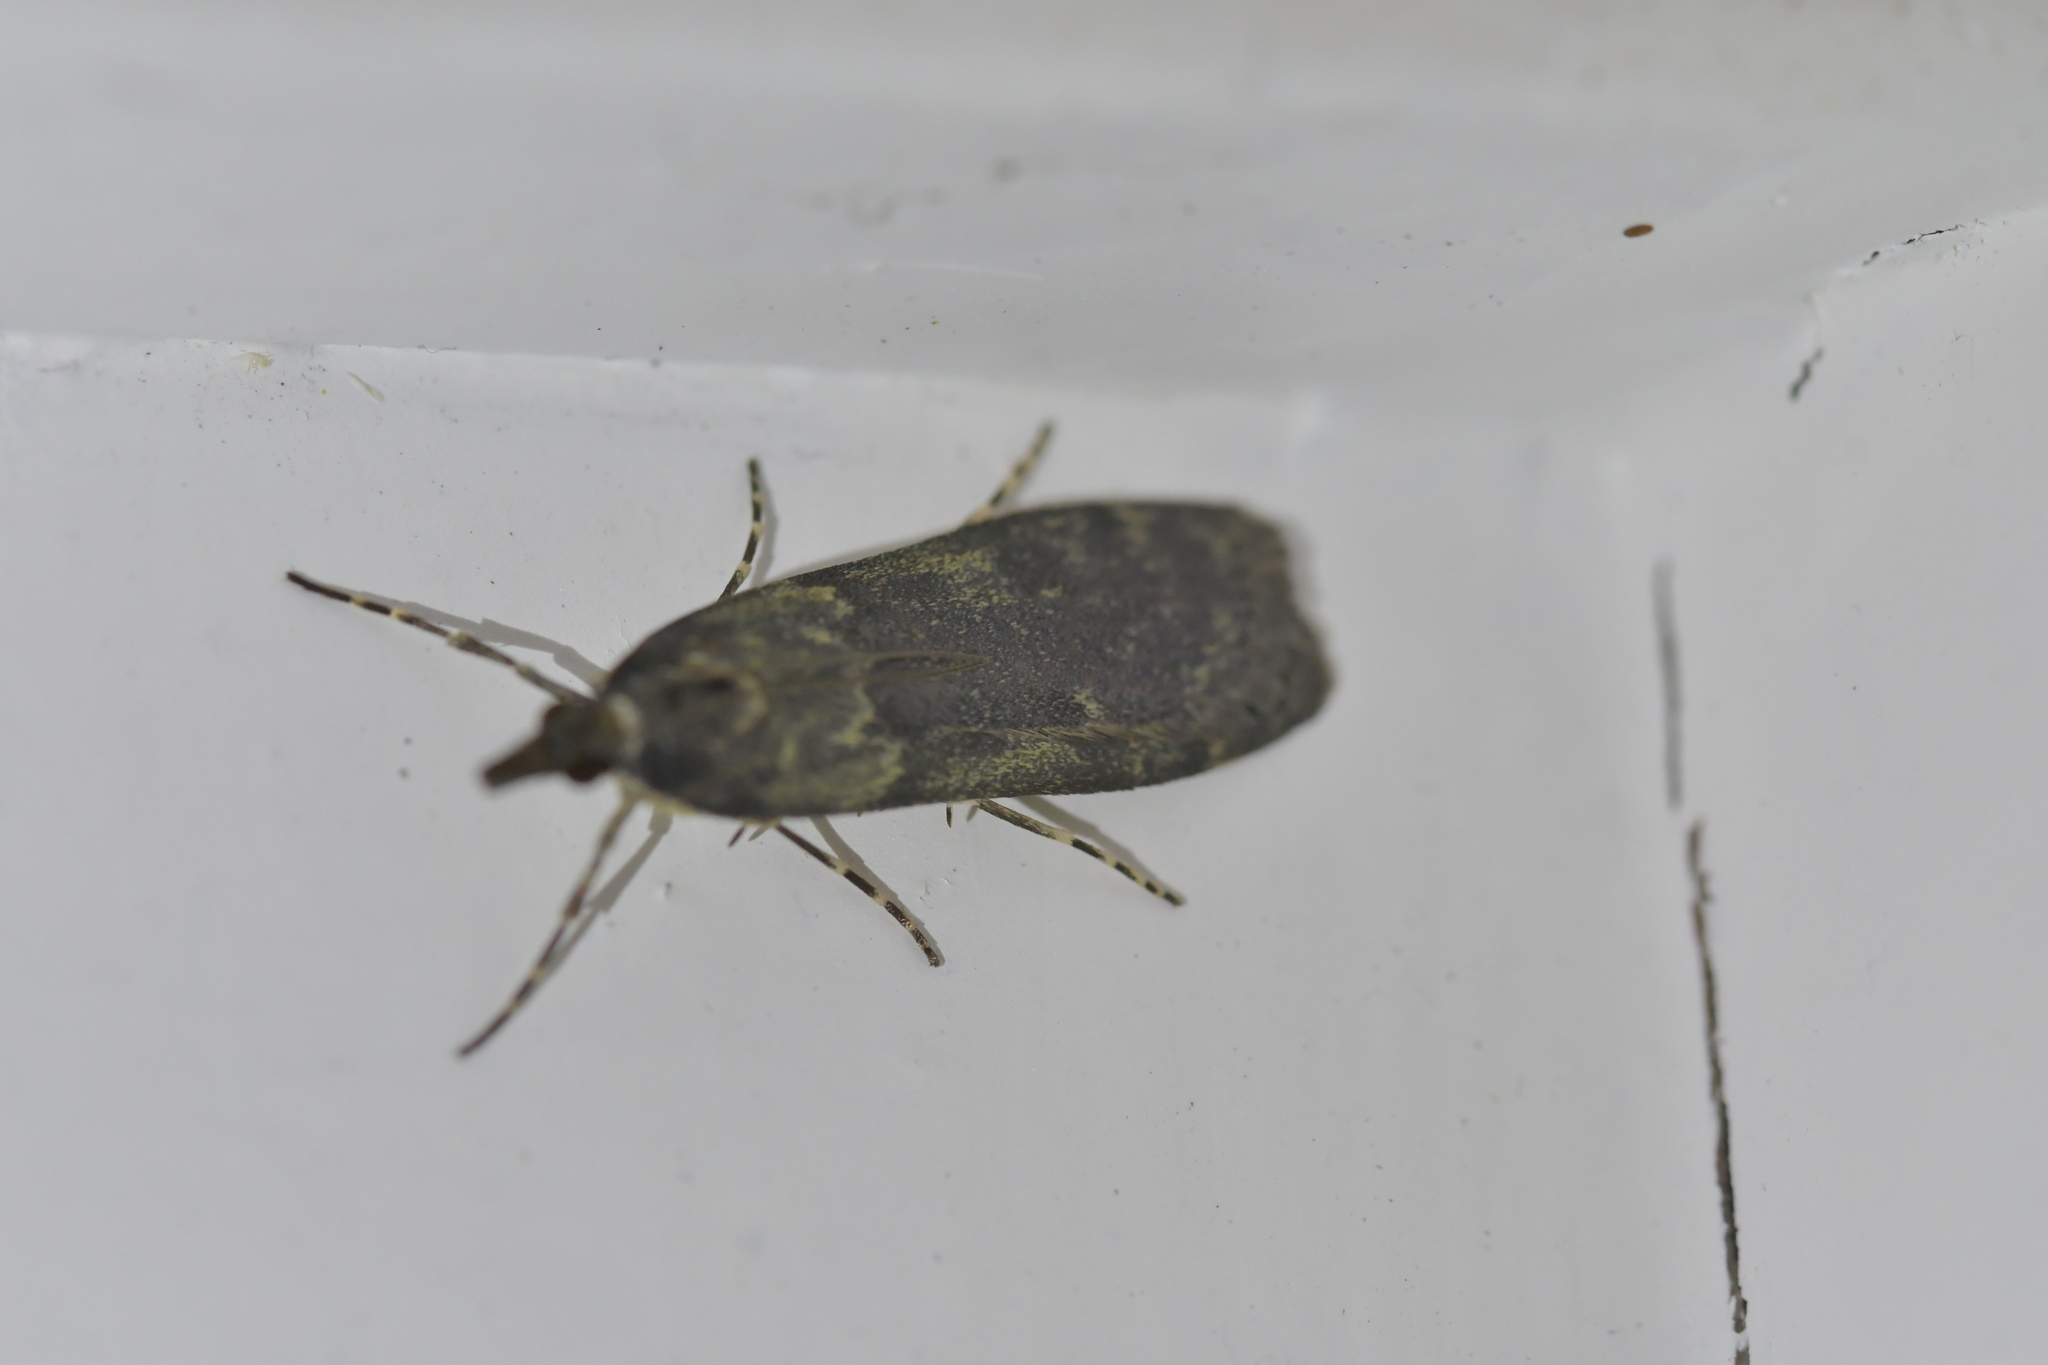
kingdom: Animalia
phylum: Arthropoda
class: Insecta
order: Lepidoptera
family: Crambidae
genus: Eudonia
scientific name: Eudonia cataxesta
